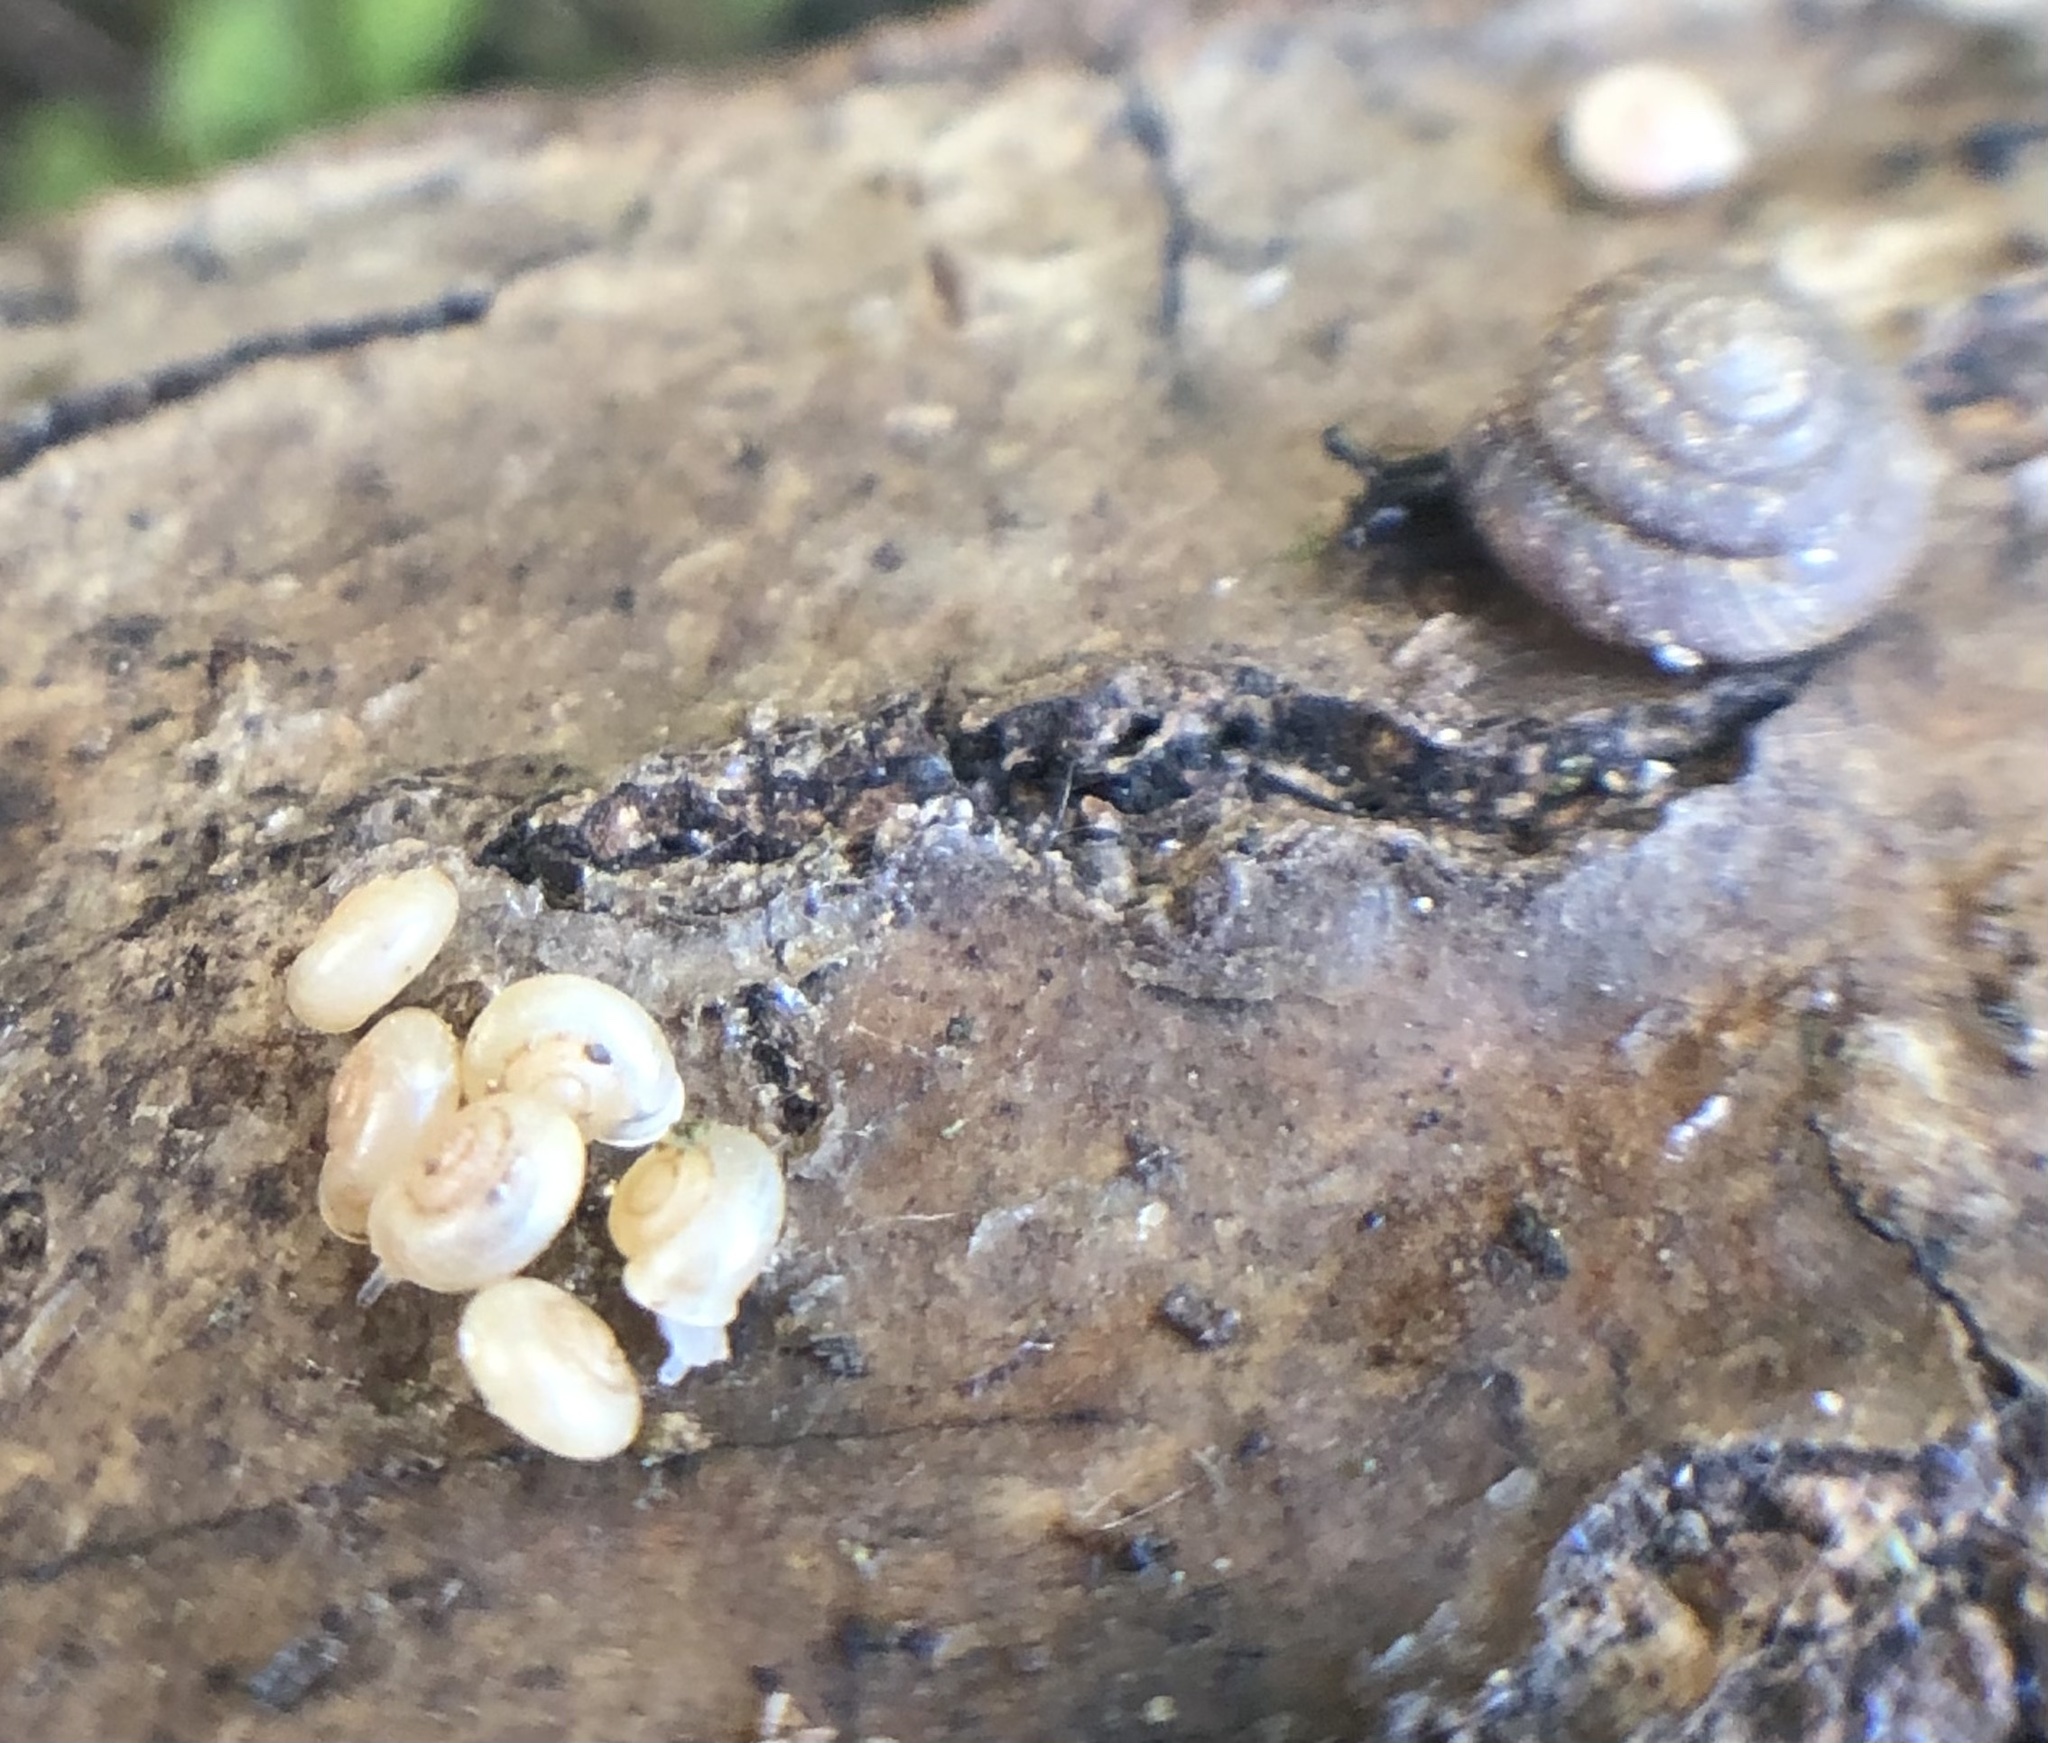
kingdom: Animalia
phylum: Mollusca
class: Gastropoda
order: Stylommatophora
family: Discidae
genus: Discus
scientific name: Discus rotundatus
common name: Rounded snail
